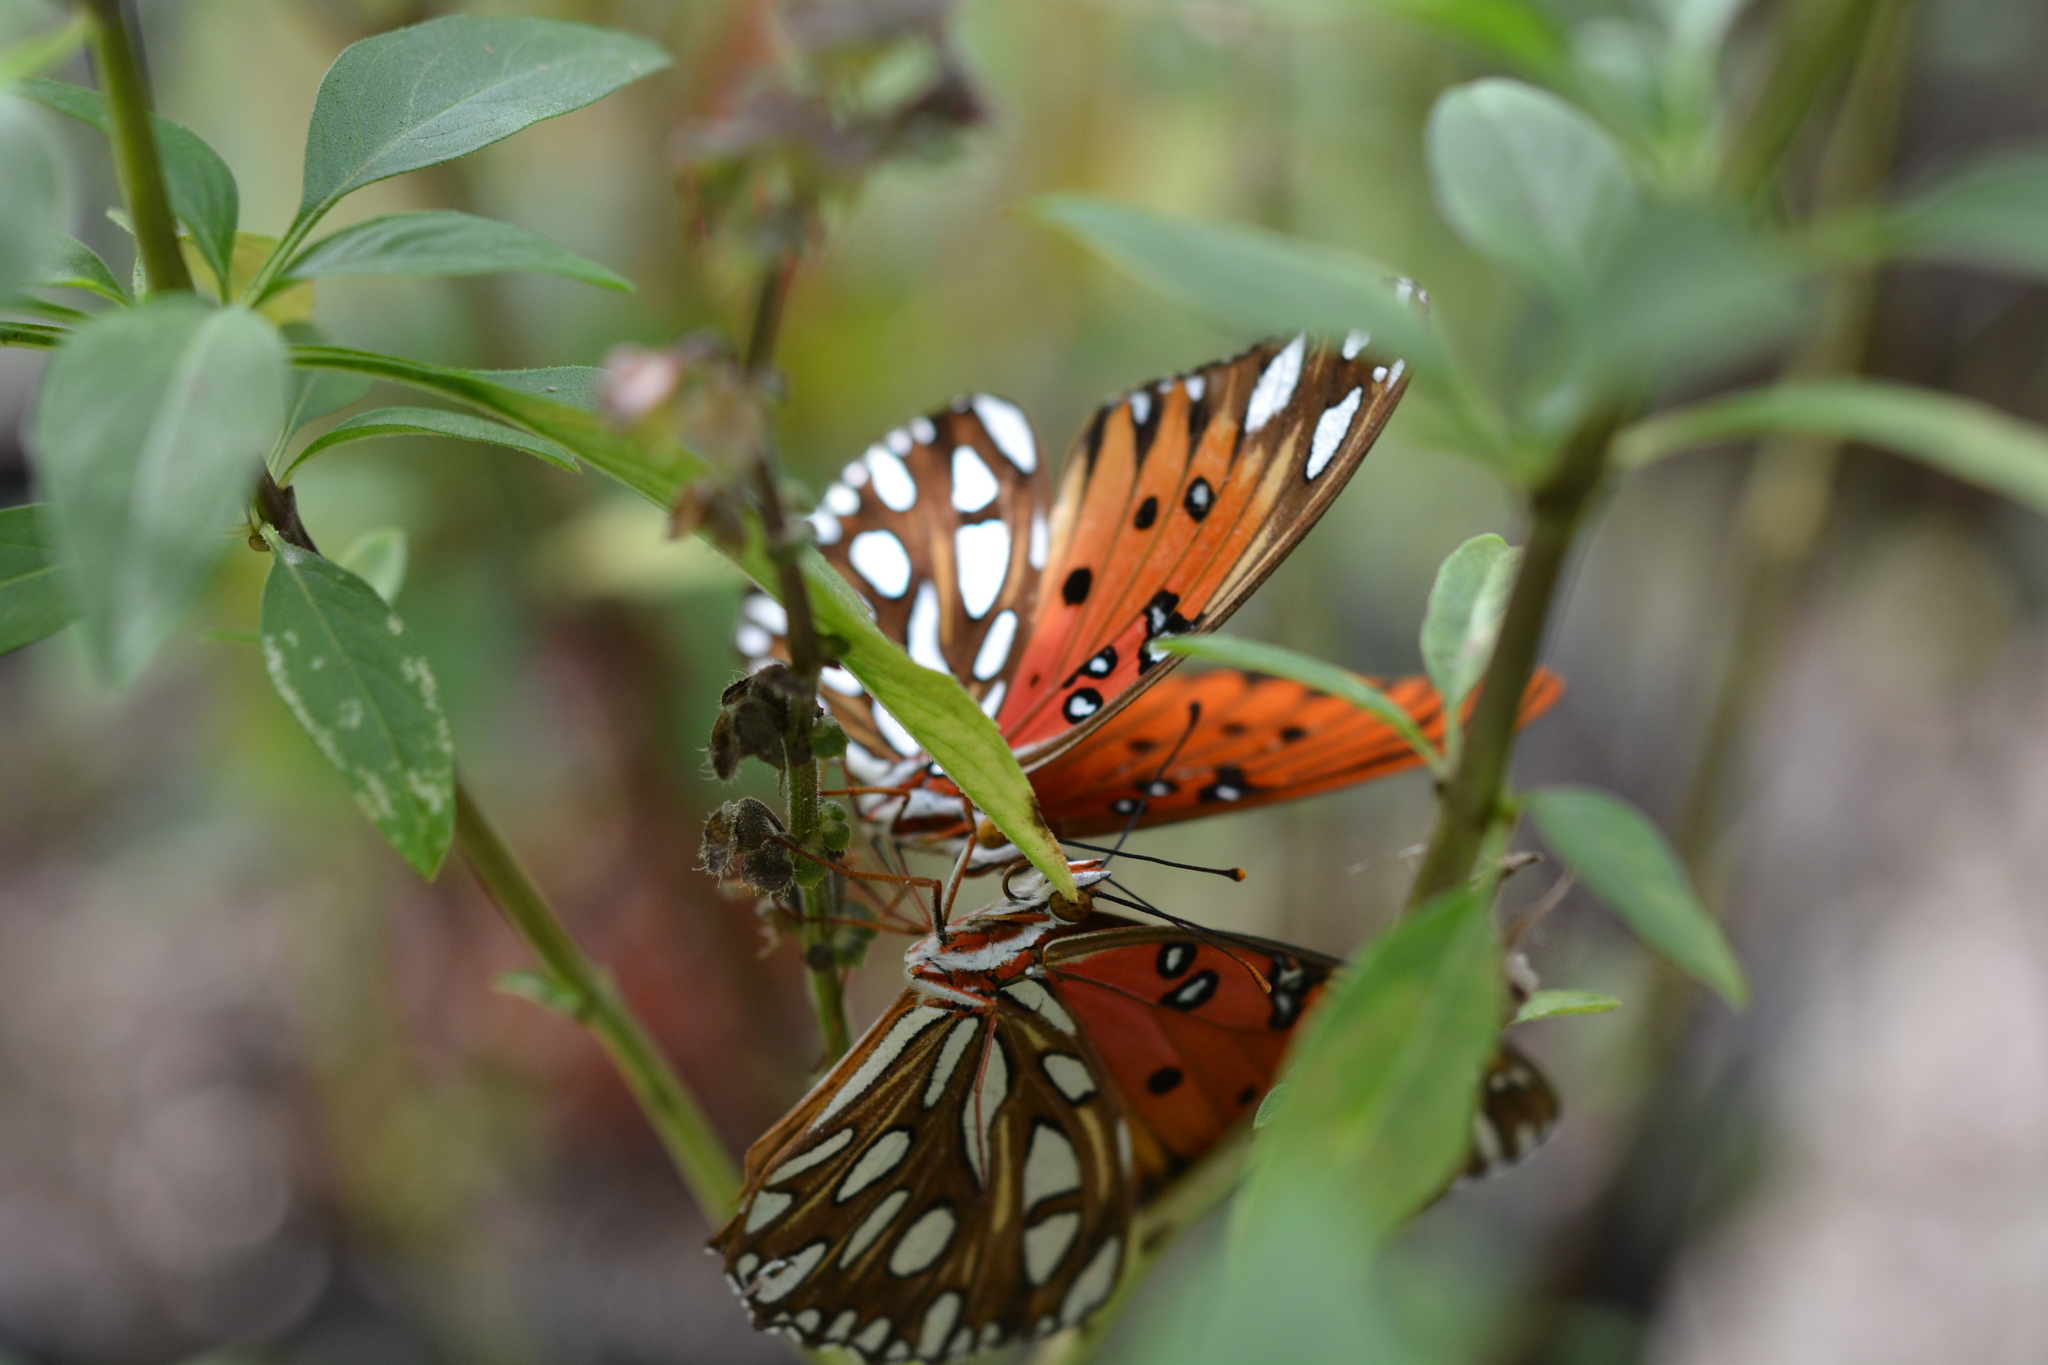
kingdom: Animalia
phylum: Arthropoda
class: Insecta
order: Lepidoptera
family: Nymphalidae
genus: Dione
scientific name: Dione vanillae
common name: Gulf fritillary
